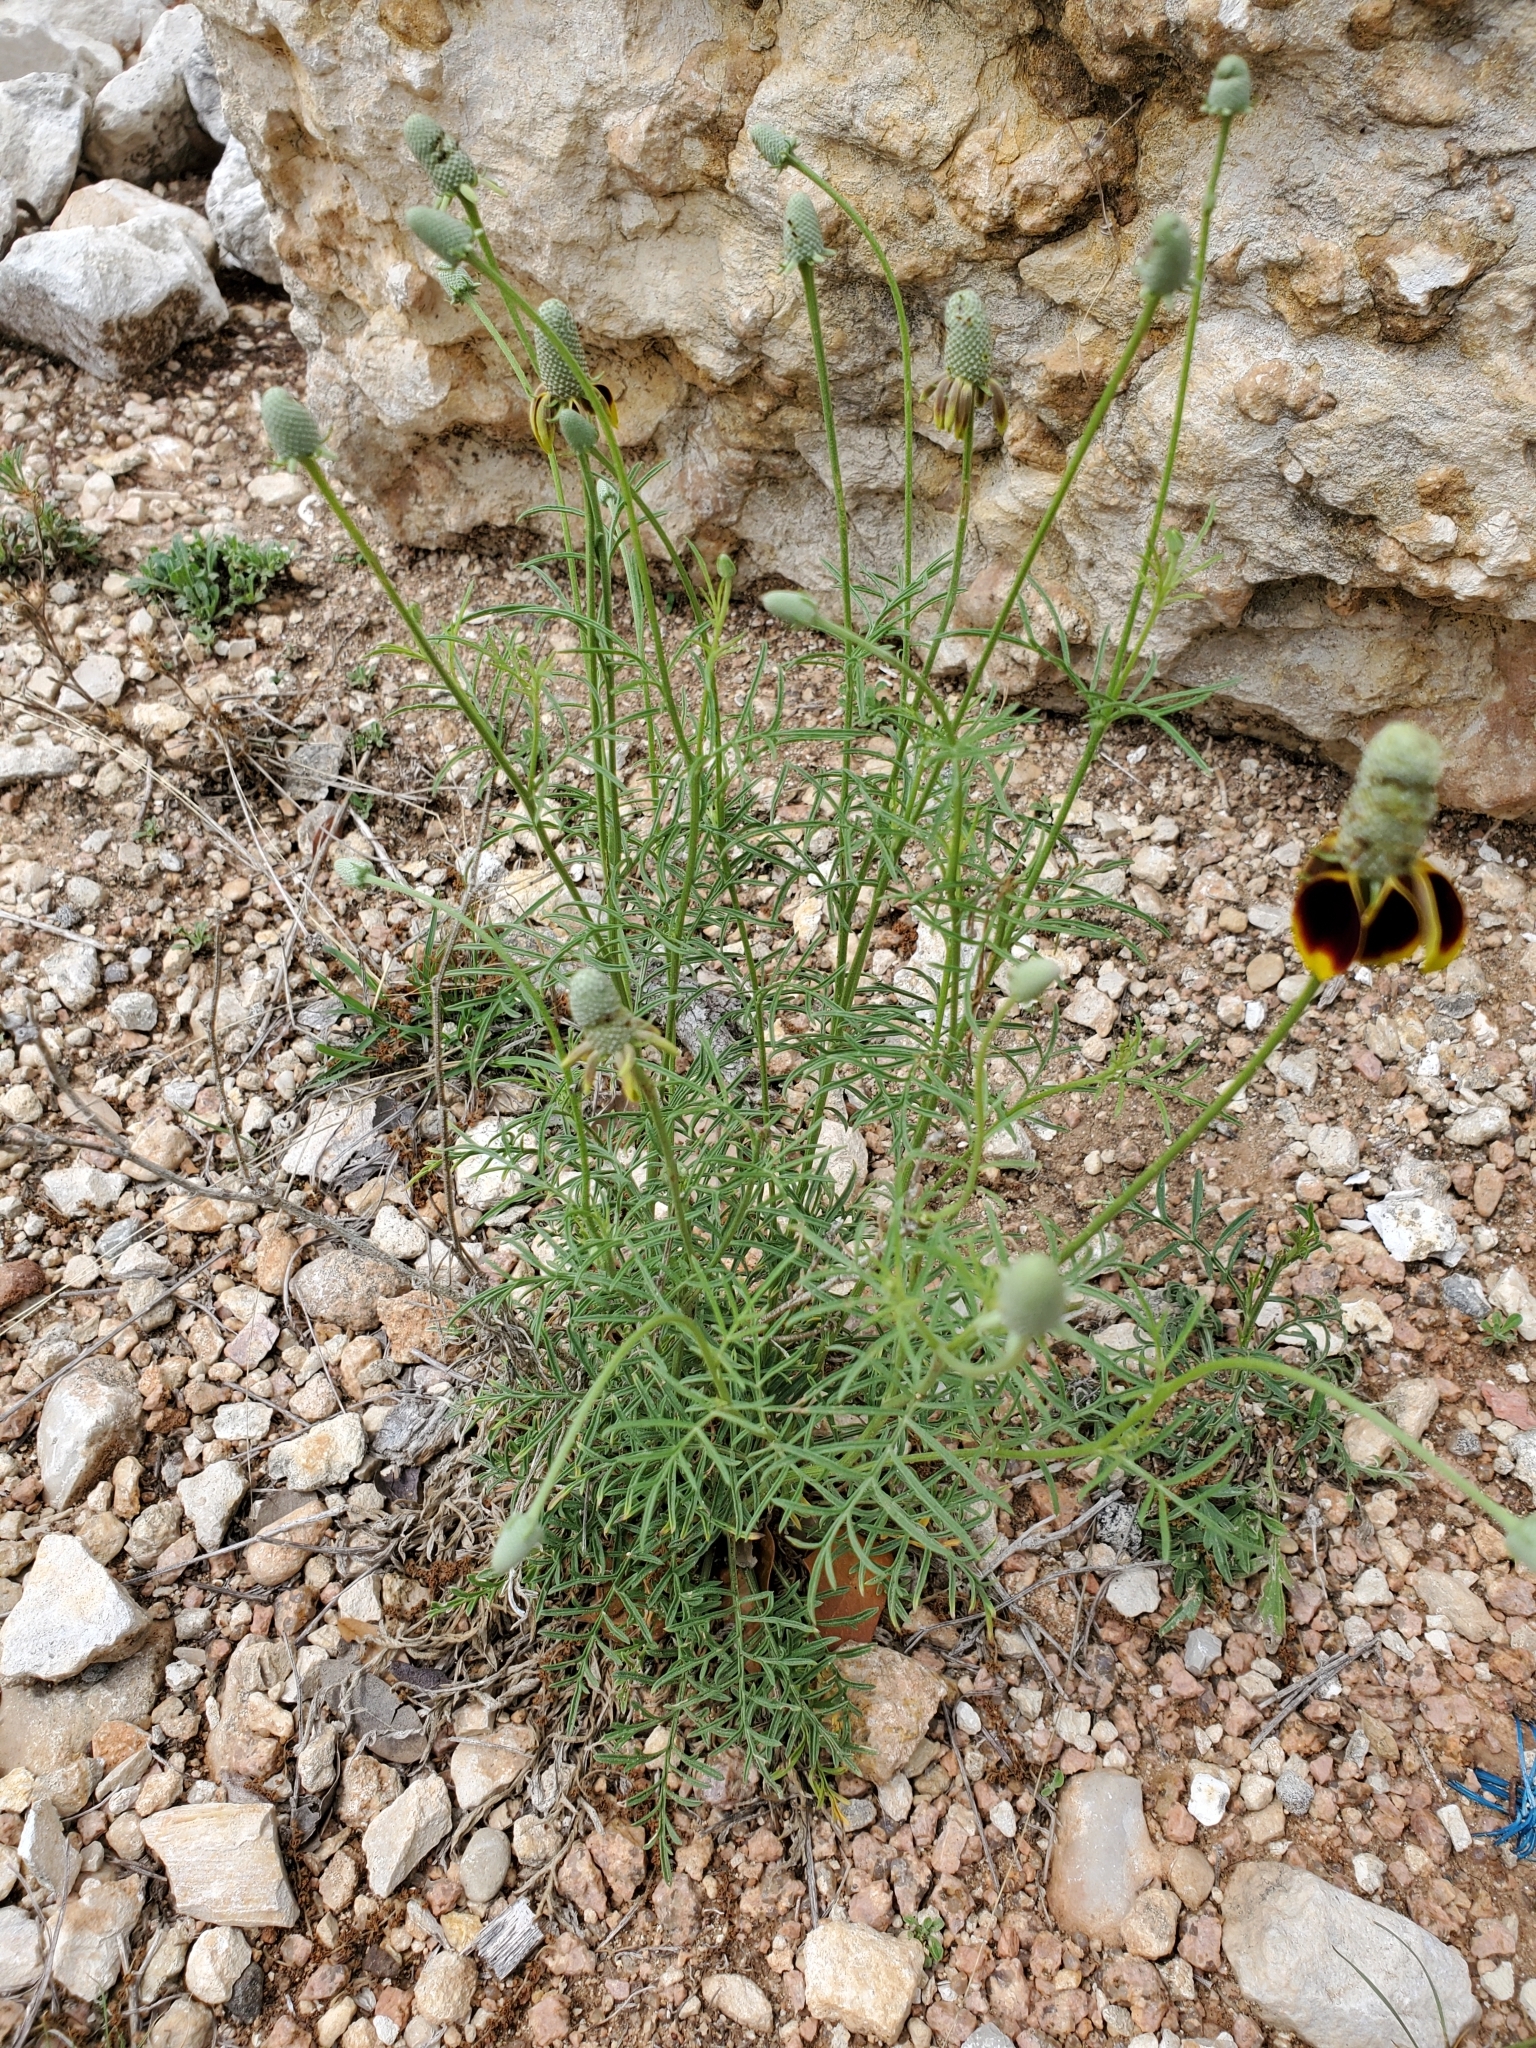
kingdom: Plantae
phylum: Tracheophyta
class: Magnoliopsida
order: Asterales
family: Asteraceae
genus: Ratibida
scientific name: Ratibida columnifera
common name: Prairie coneflower
